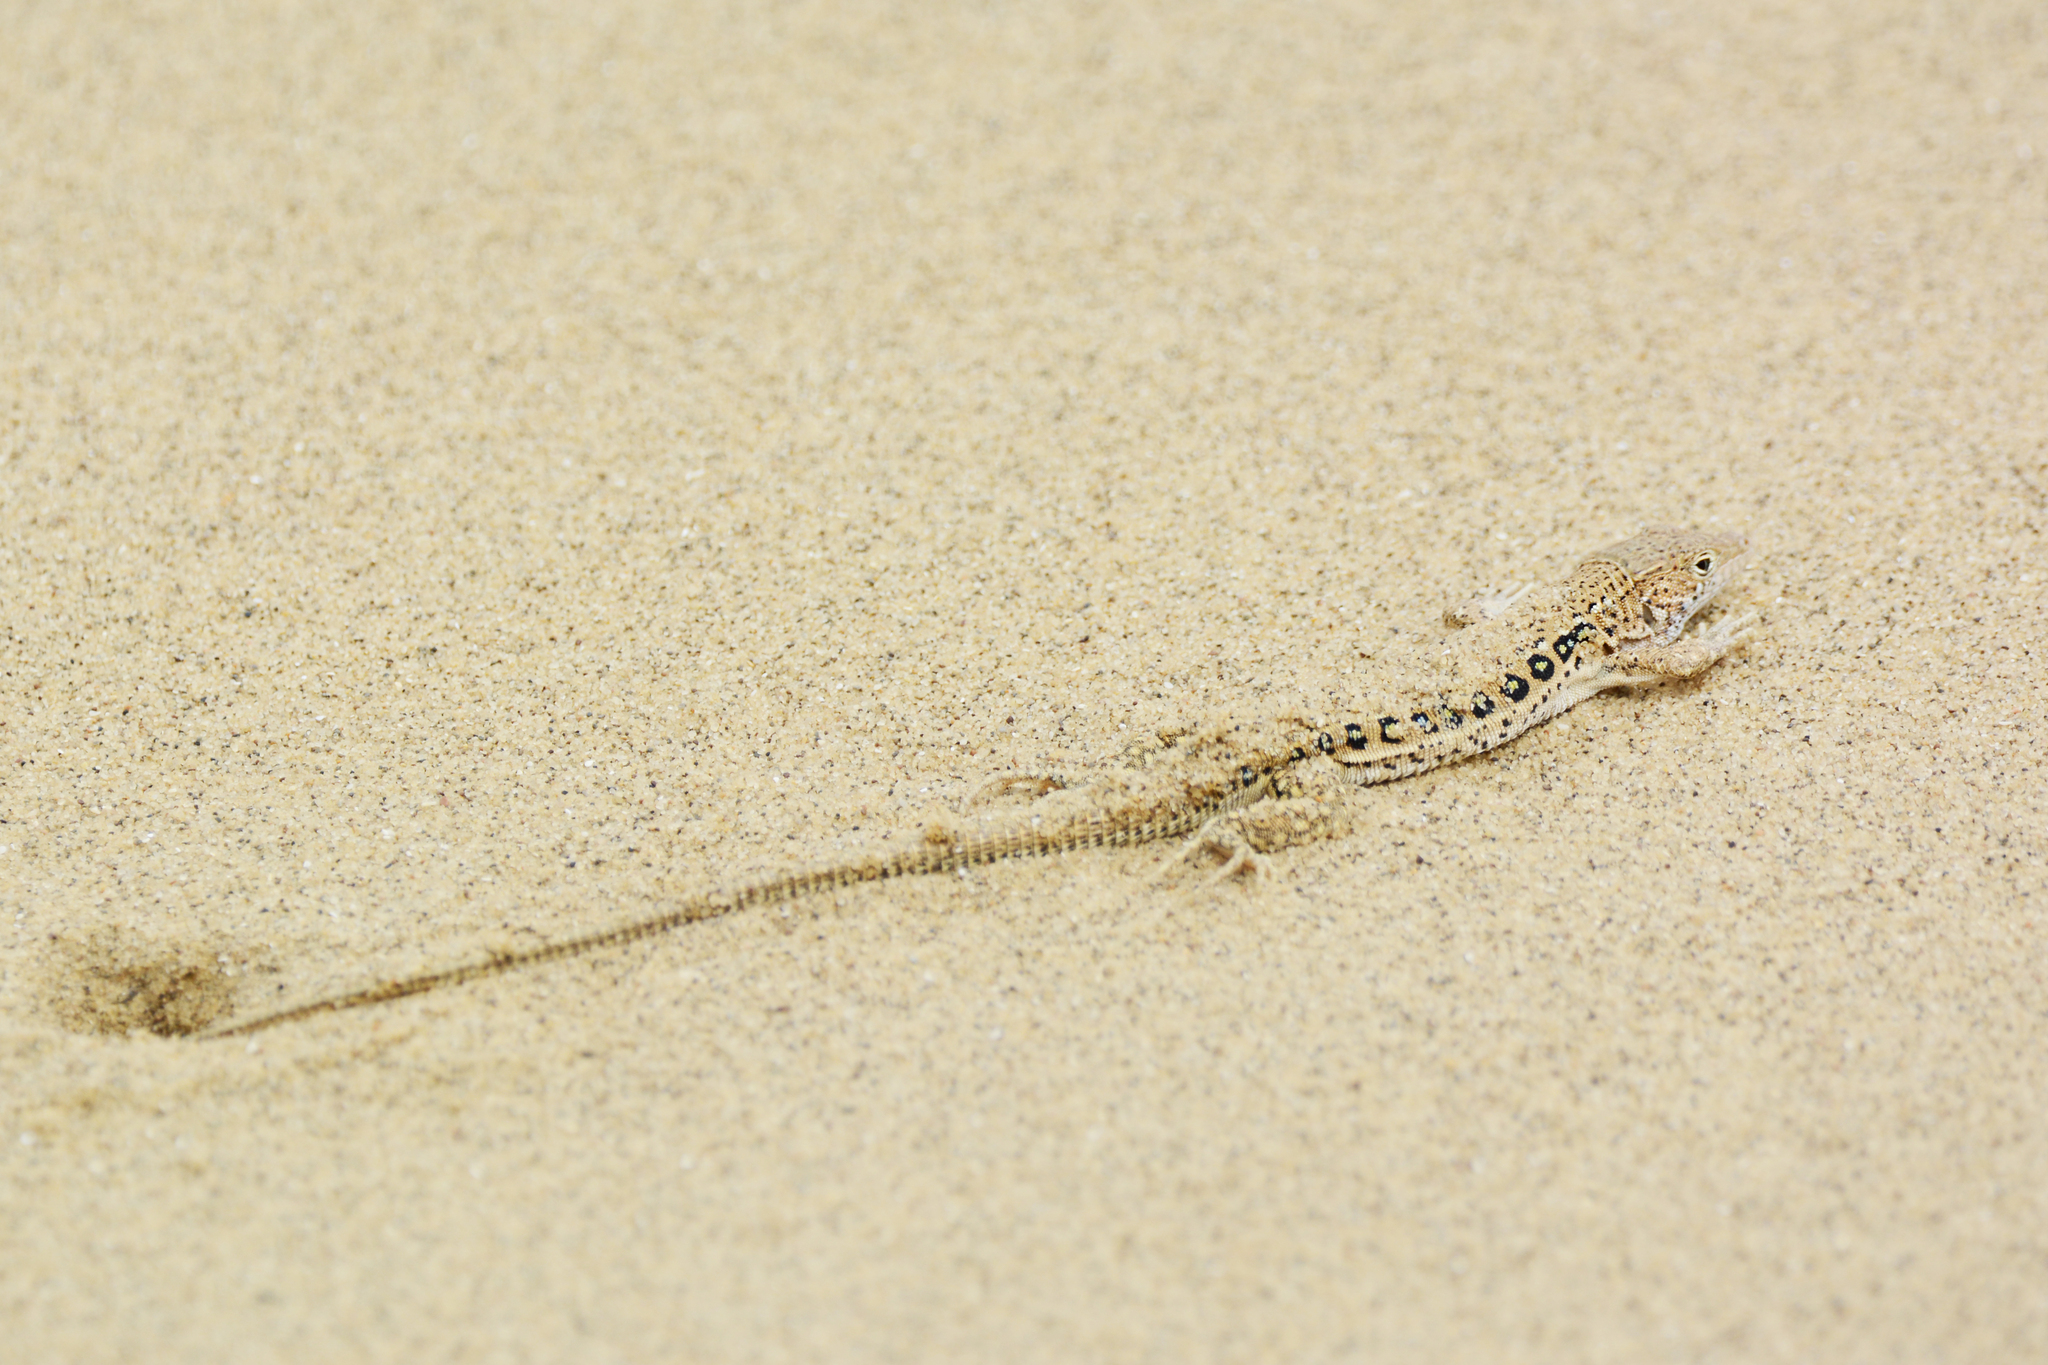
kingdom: Animalia
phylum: Chordata
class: Squamata
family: Lacertidae
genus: Eremias
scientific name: Eremias velox
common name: Central asian racerunner
